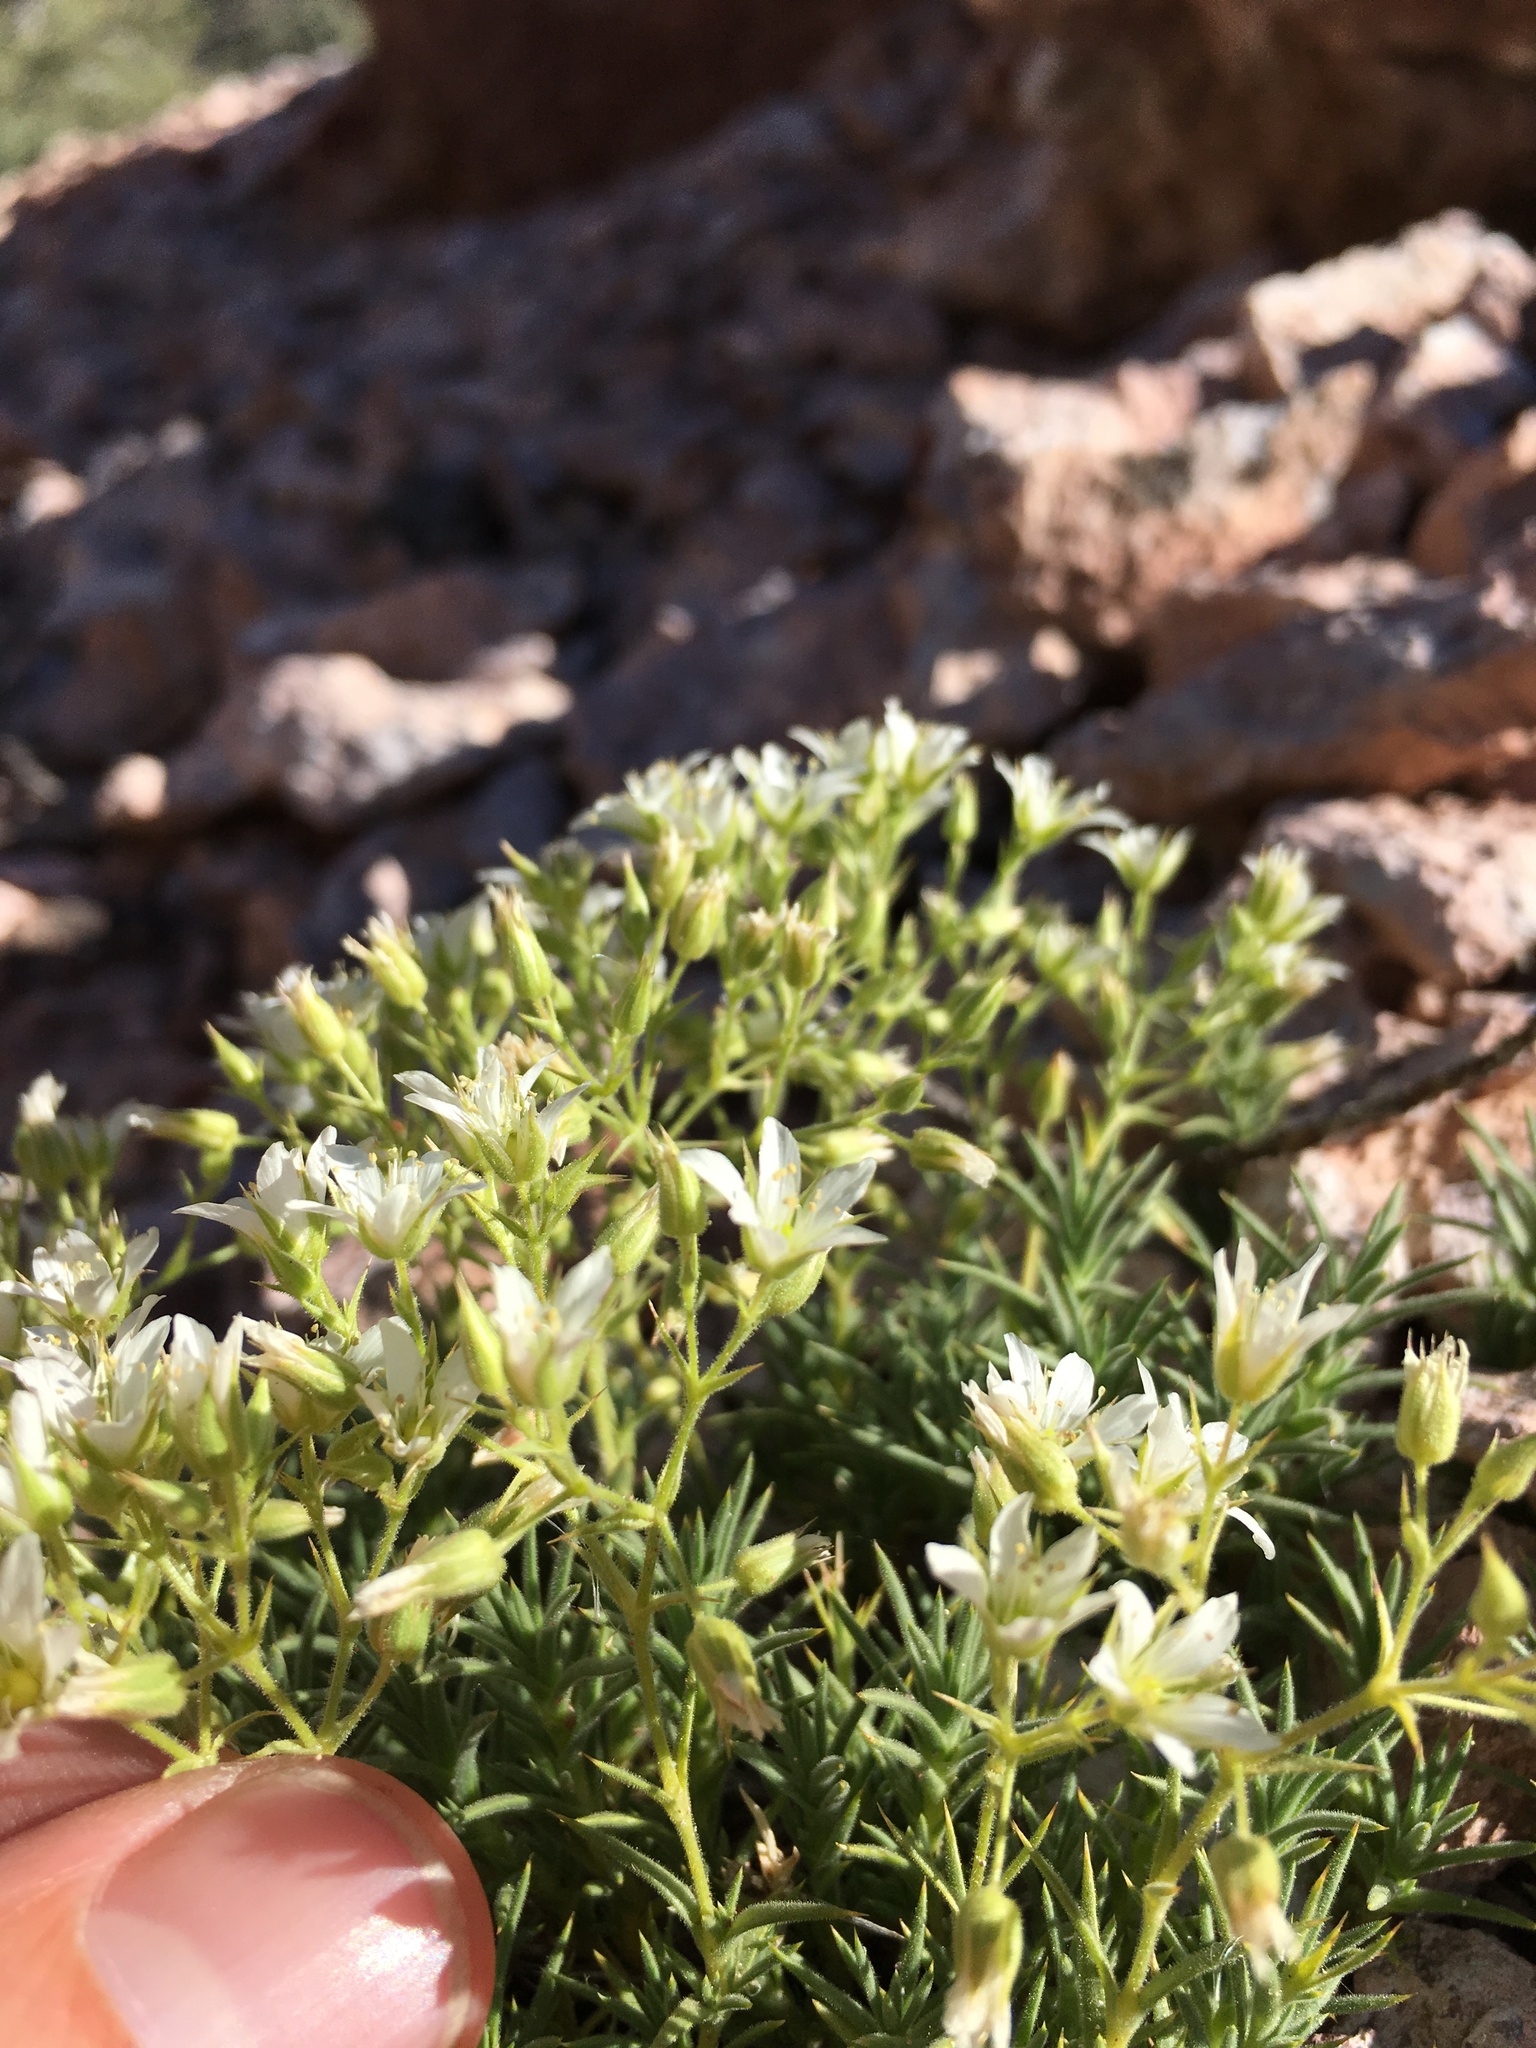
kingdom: Plantae
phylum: Tracheophyta
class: Magnoliopsida
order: Caryophyllales
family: Caryophyllaceae
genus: Sabulina
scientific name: Sabulina nuttallii
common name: Nuttall's stitchwort
